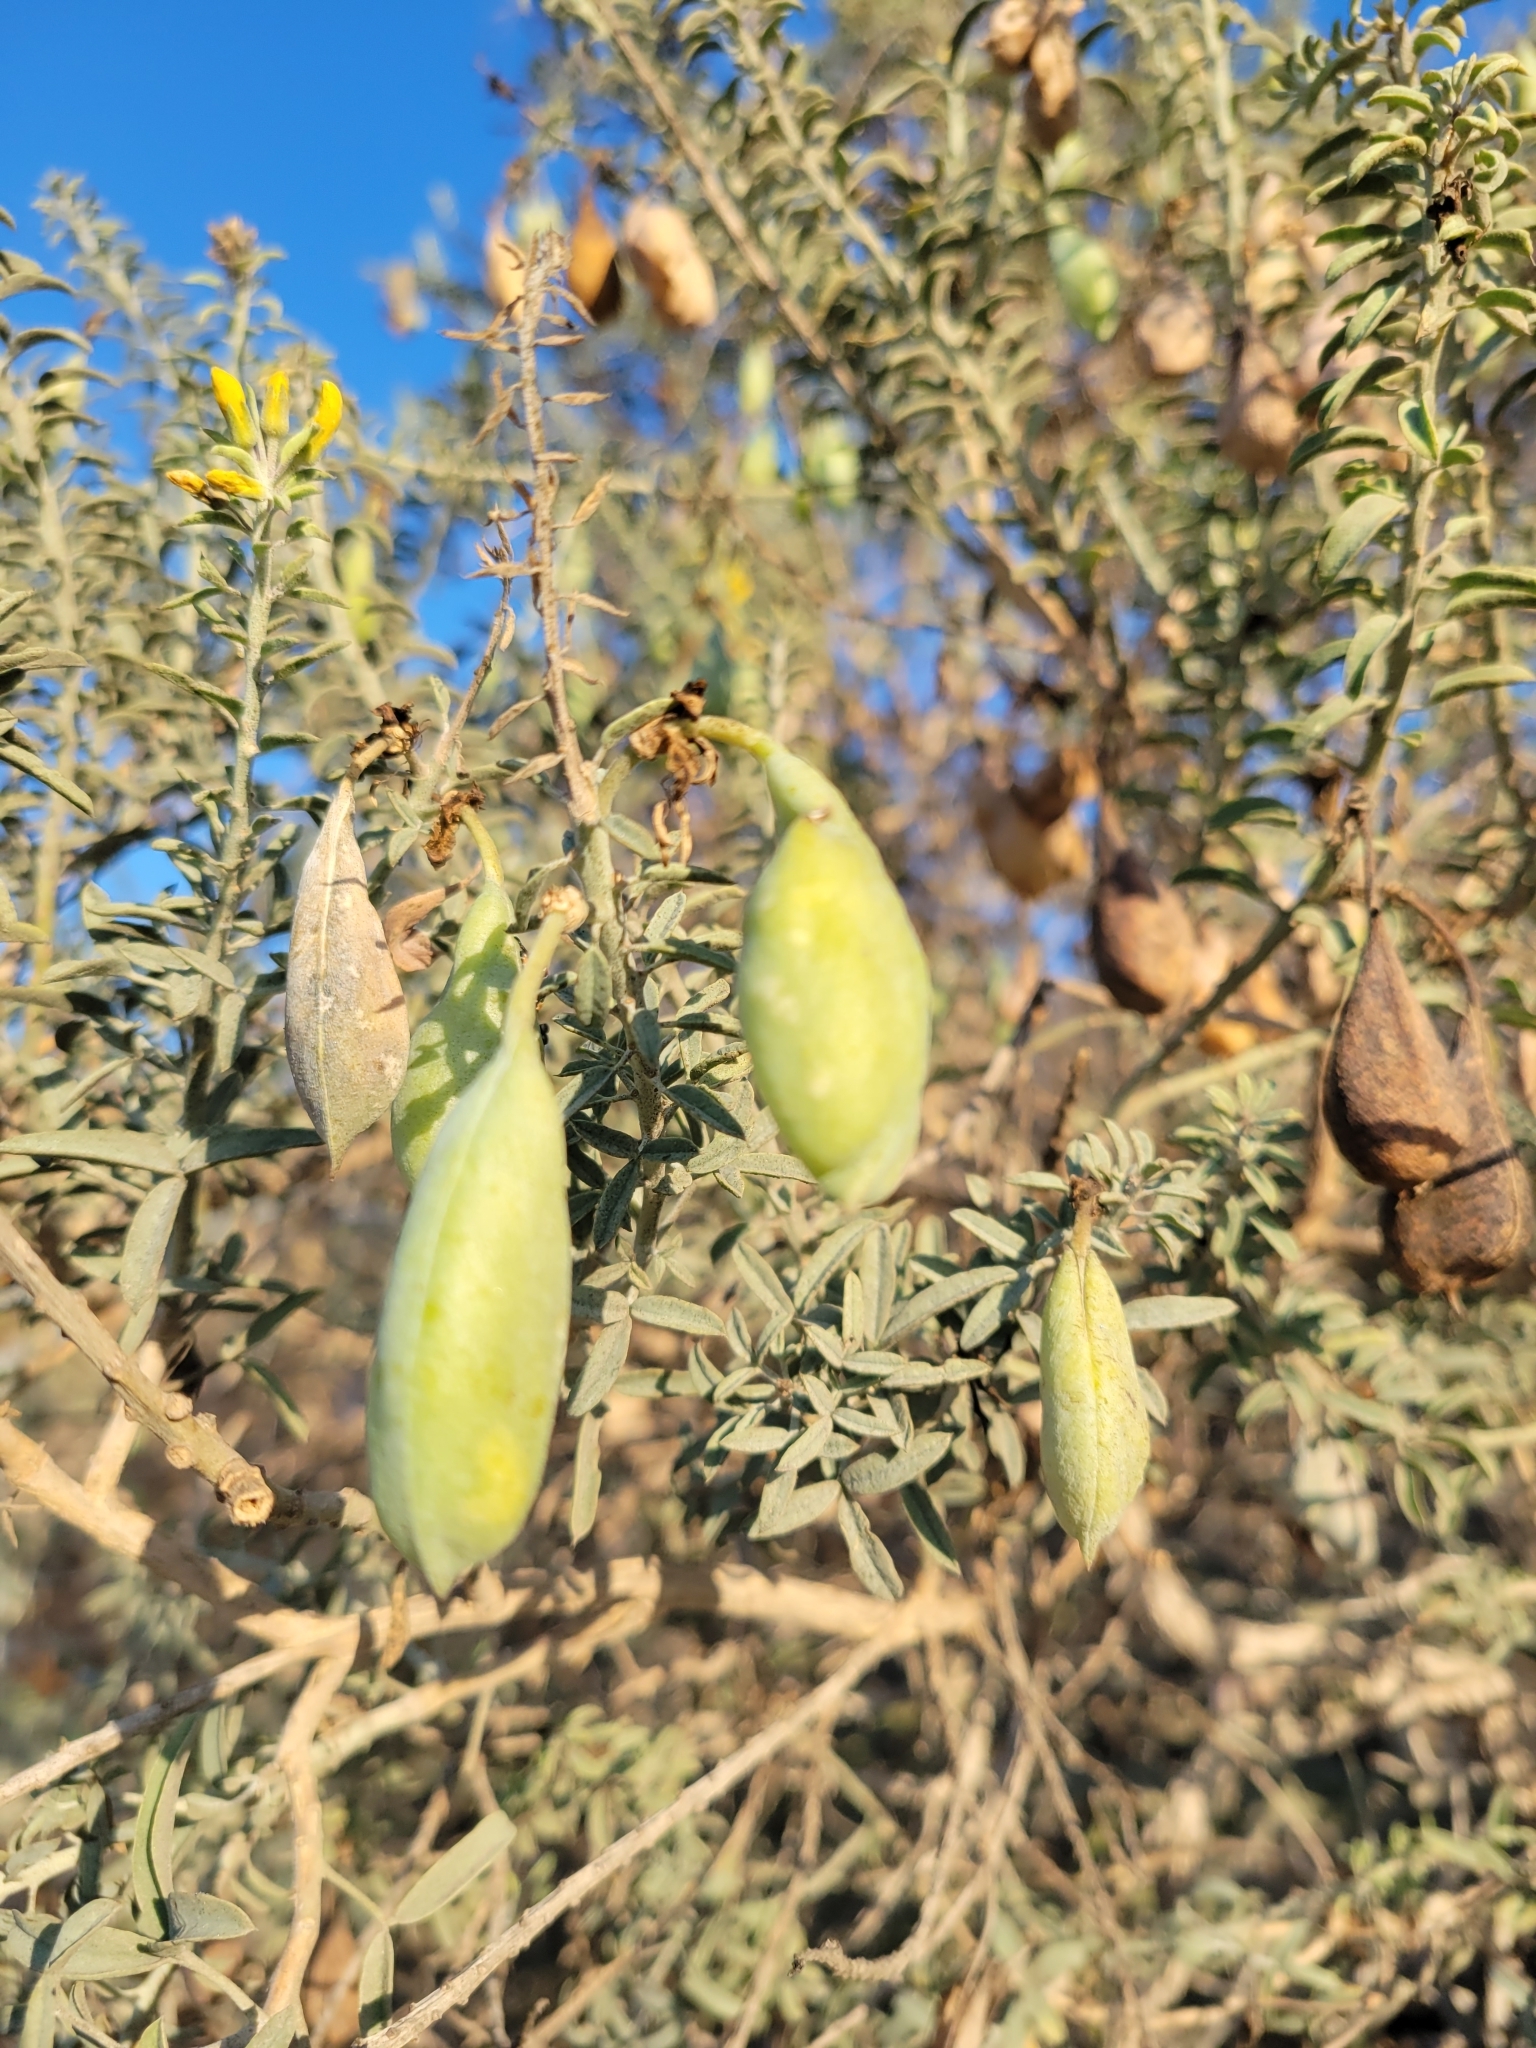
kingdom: Plantae
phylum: Tracheophyta
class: Magnoliopsida
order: Brassicales
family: Cleomaceae
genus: Cleomella
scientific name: Cleomella arborea
